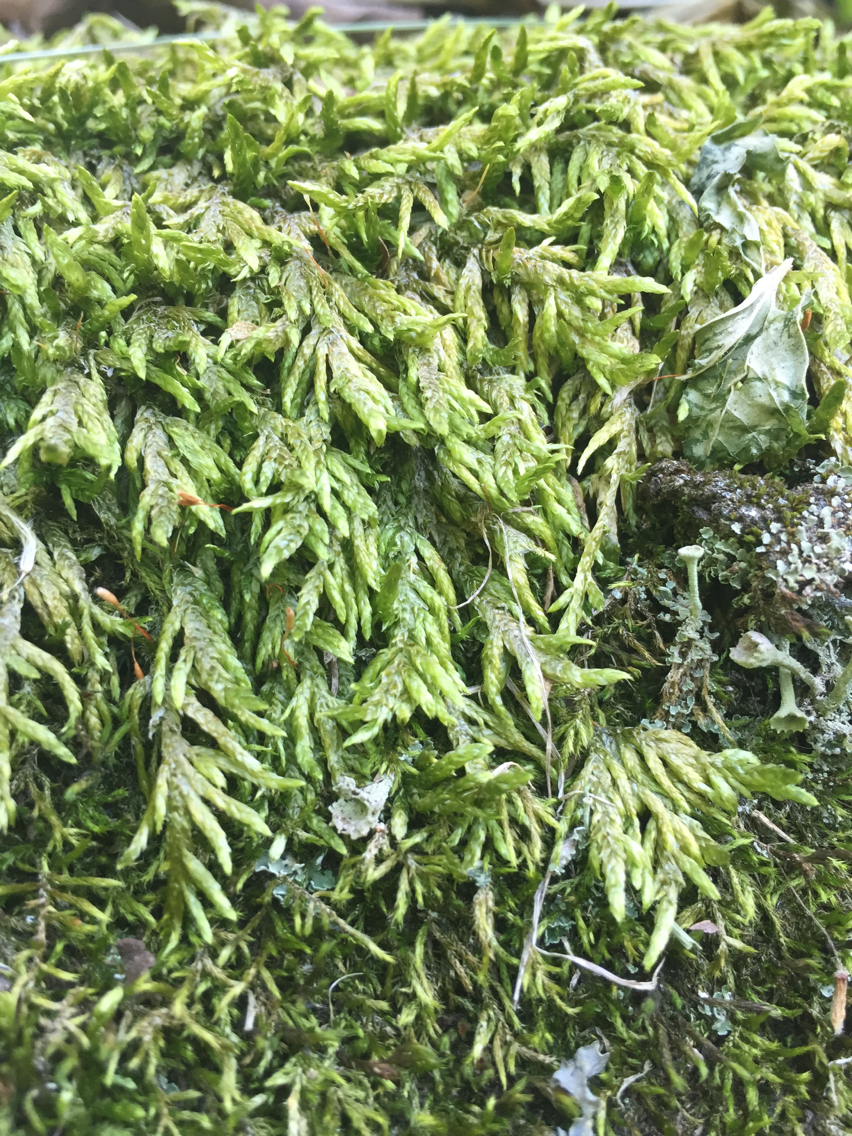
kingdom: Plantae
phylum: Bryophyta
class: Bryopsida
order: Hypnales
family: Entodontaceae
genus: Entodon
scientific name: Entodon cladorrhizans
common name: Flat-stemmed entodon moss
